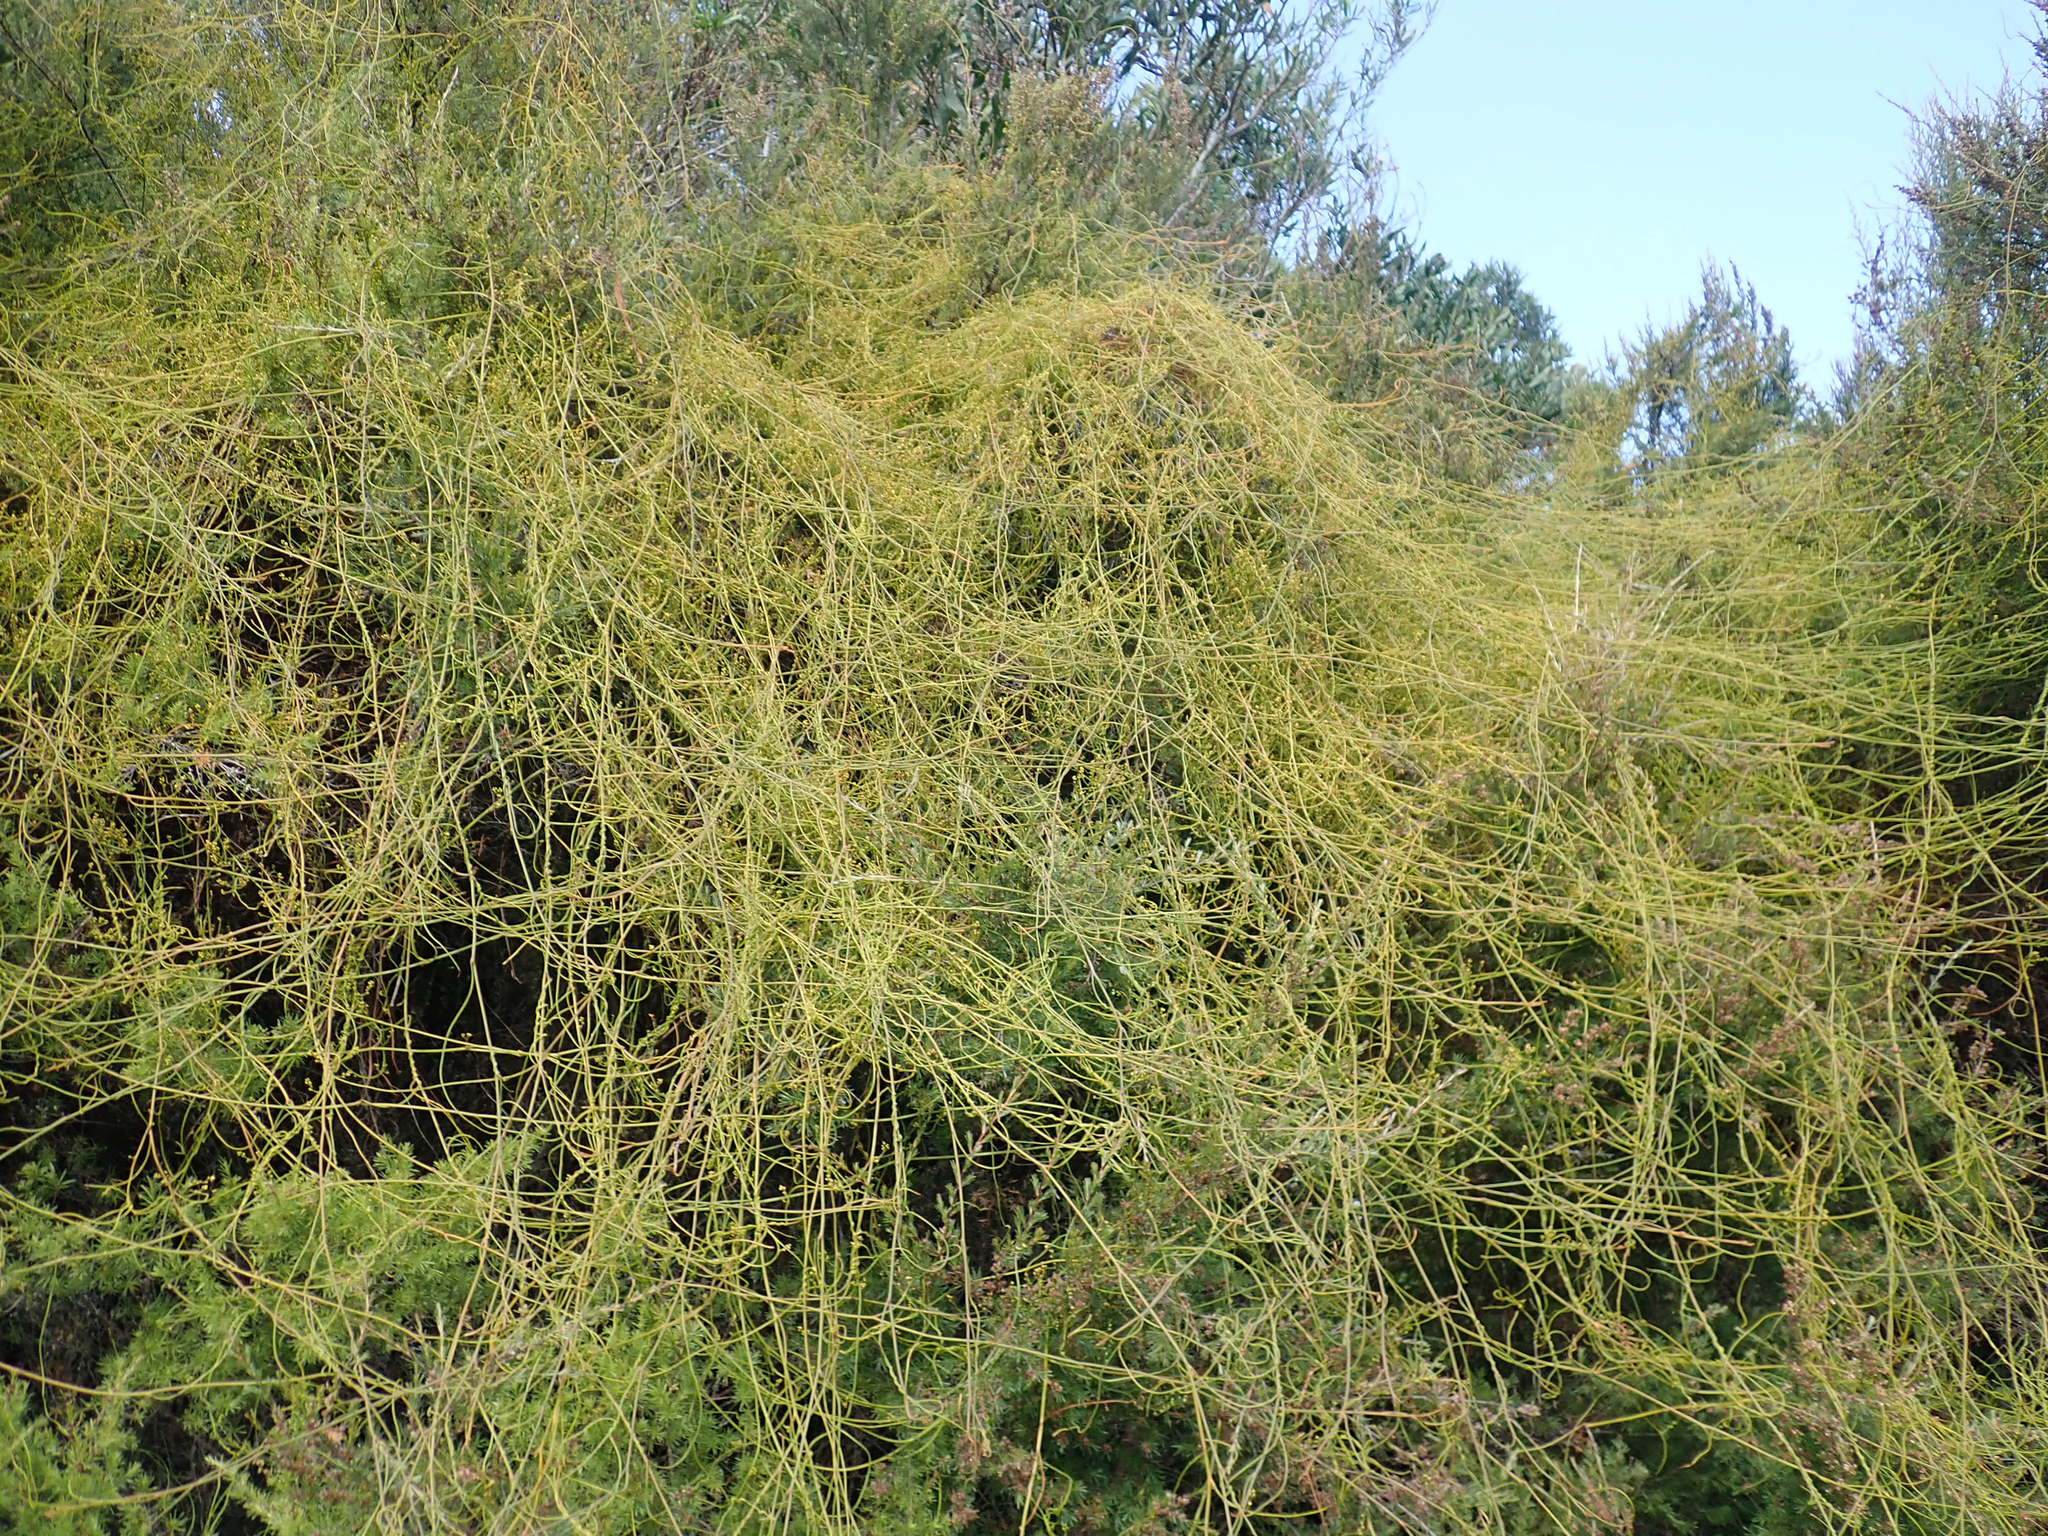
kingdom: Plantae
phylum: Tracheophyta
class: Magnoliopsida
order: Laurales
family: Lauraceae
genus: Cassytha
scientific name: Cassytha paniculata
